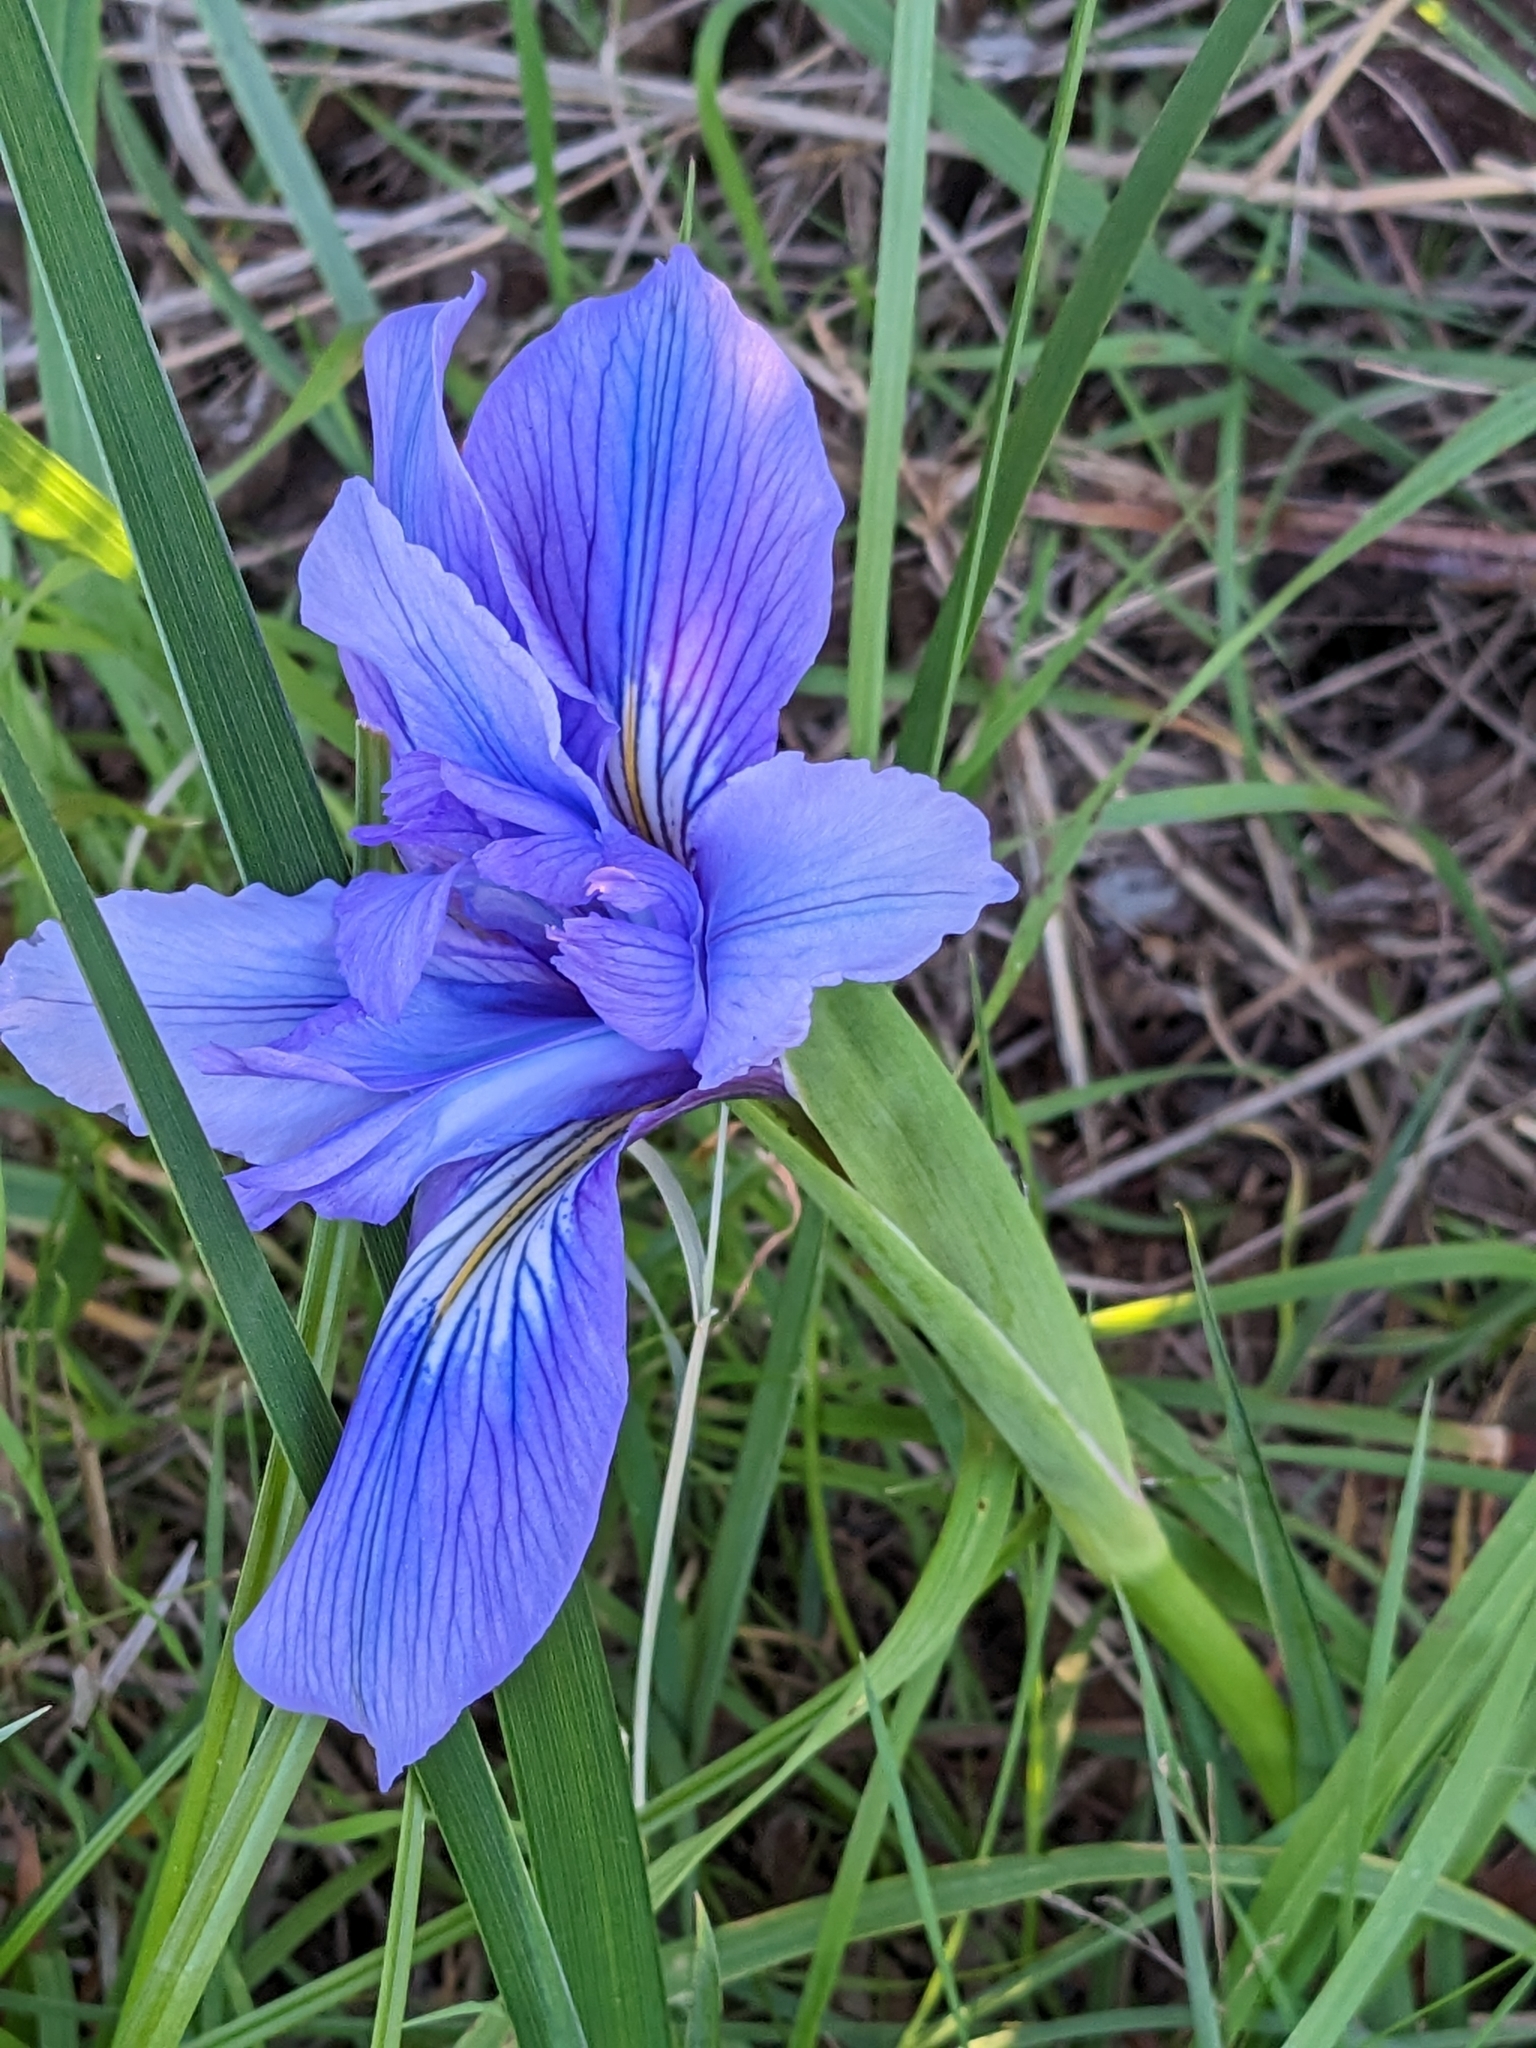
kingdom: Plantae
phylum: Tracheophyta
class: Liliopsida
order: Asparagales
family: Iridaceae
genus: Iris
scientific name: Iris douglasiana
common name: Marin iris
